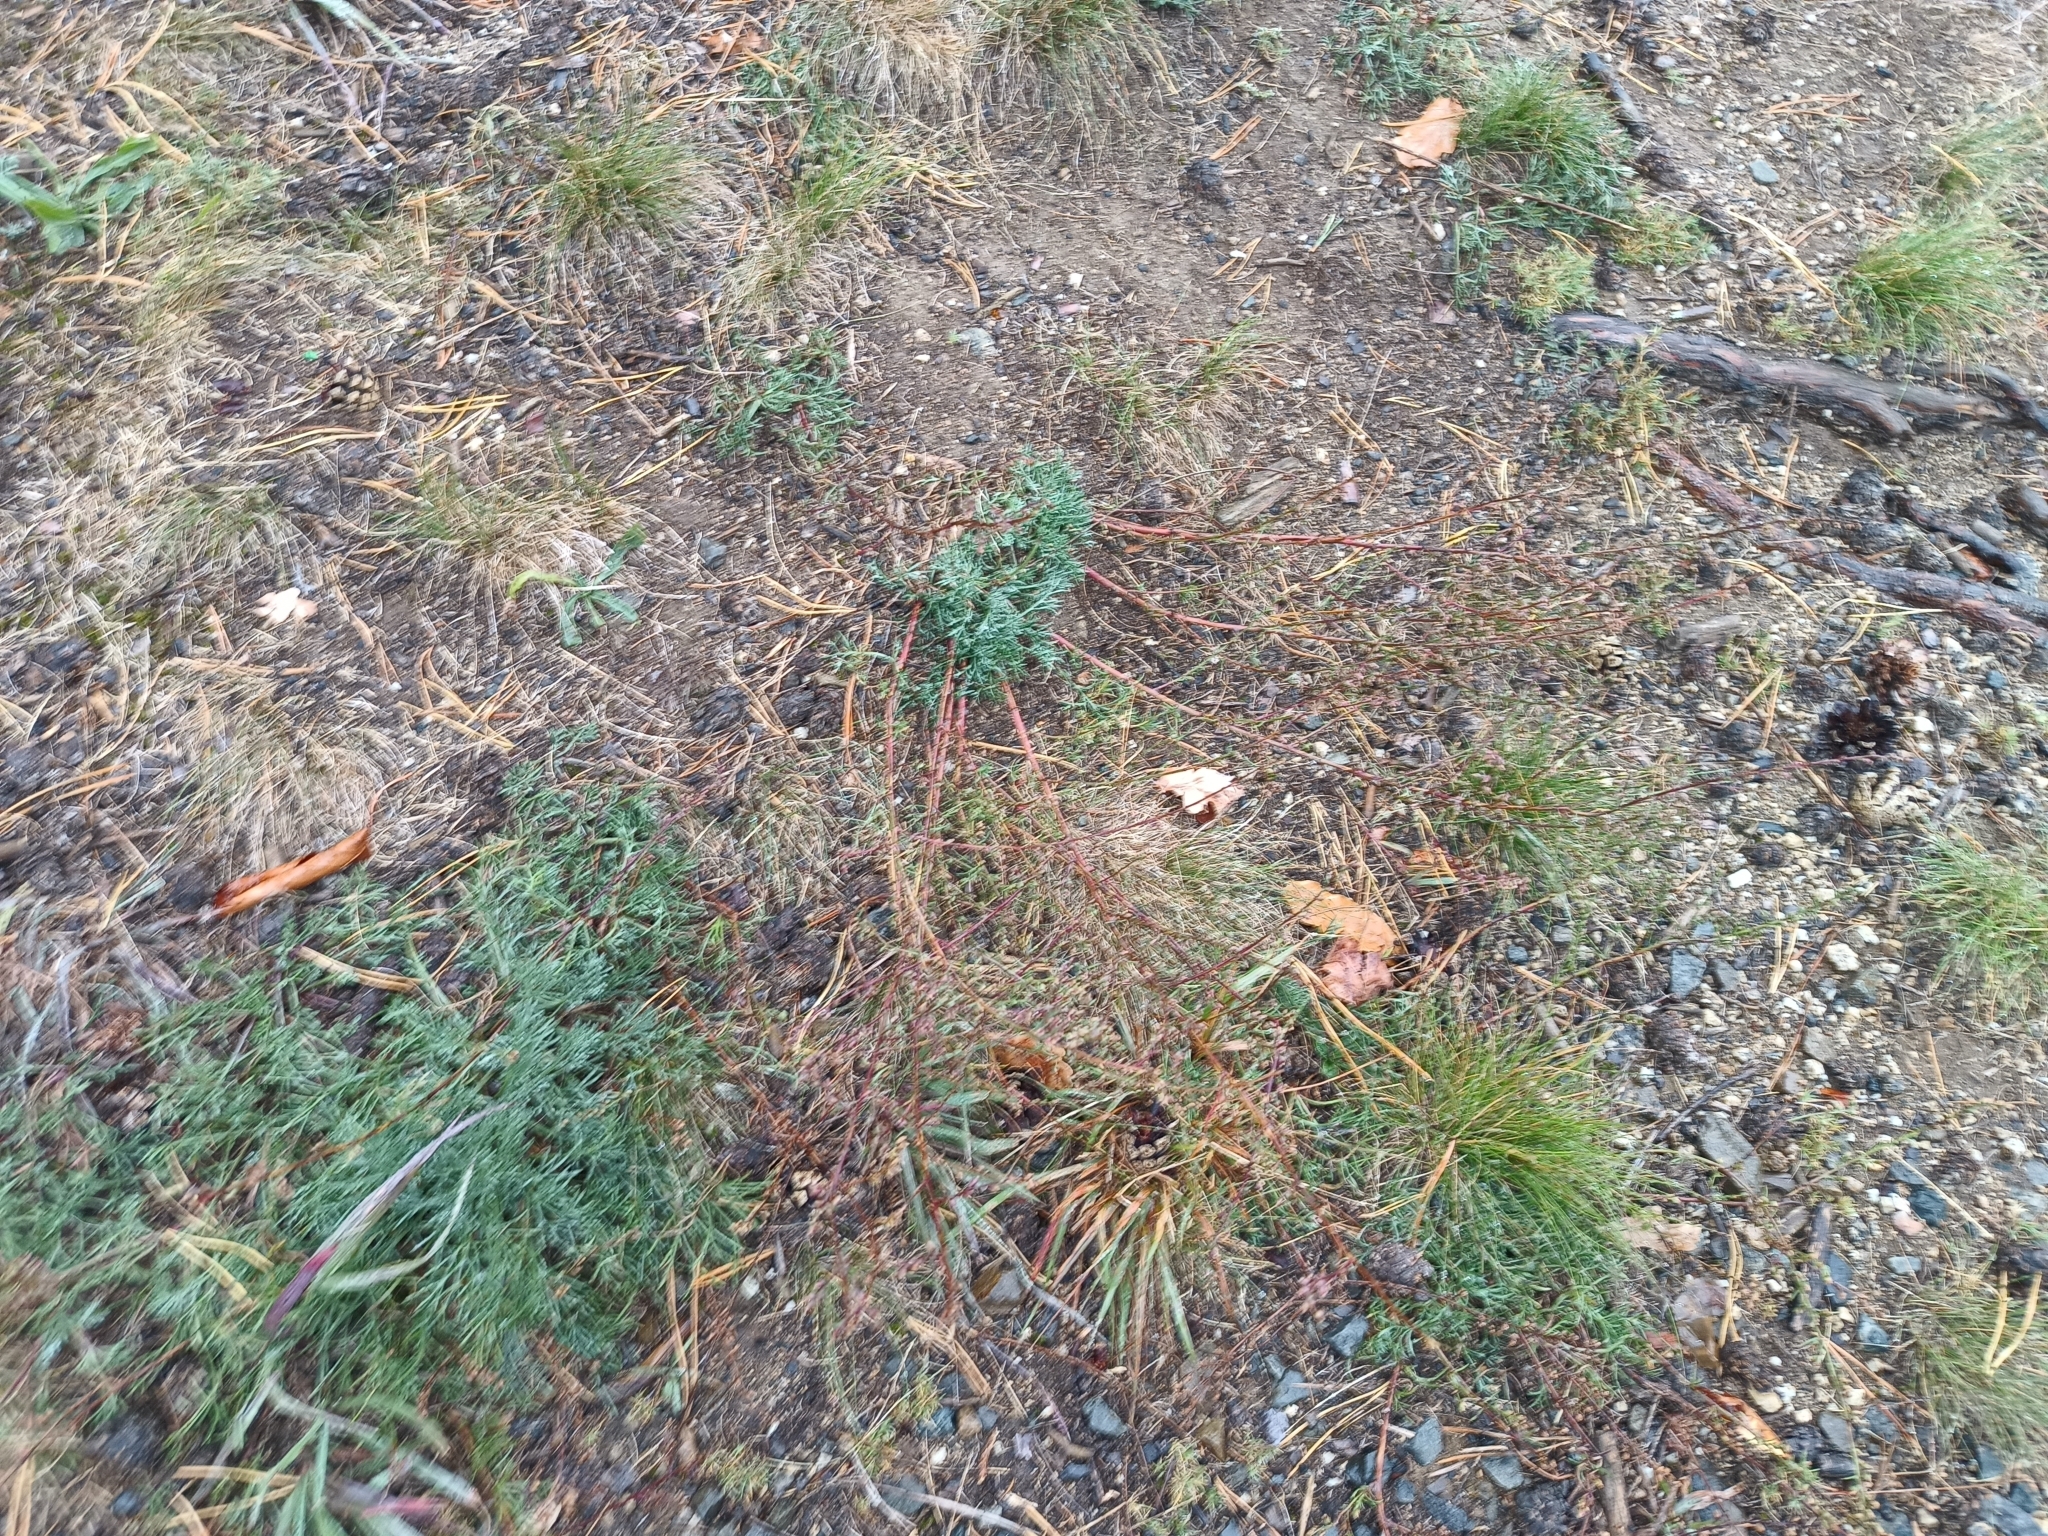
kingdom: Plantae
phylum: Tracheophyta
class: Magnoliopsida
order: Asterales
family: Asteraceae
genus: Artemisia
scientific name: Artemisia campestris
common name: Field wormwood
